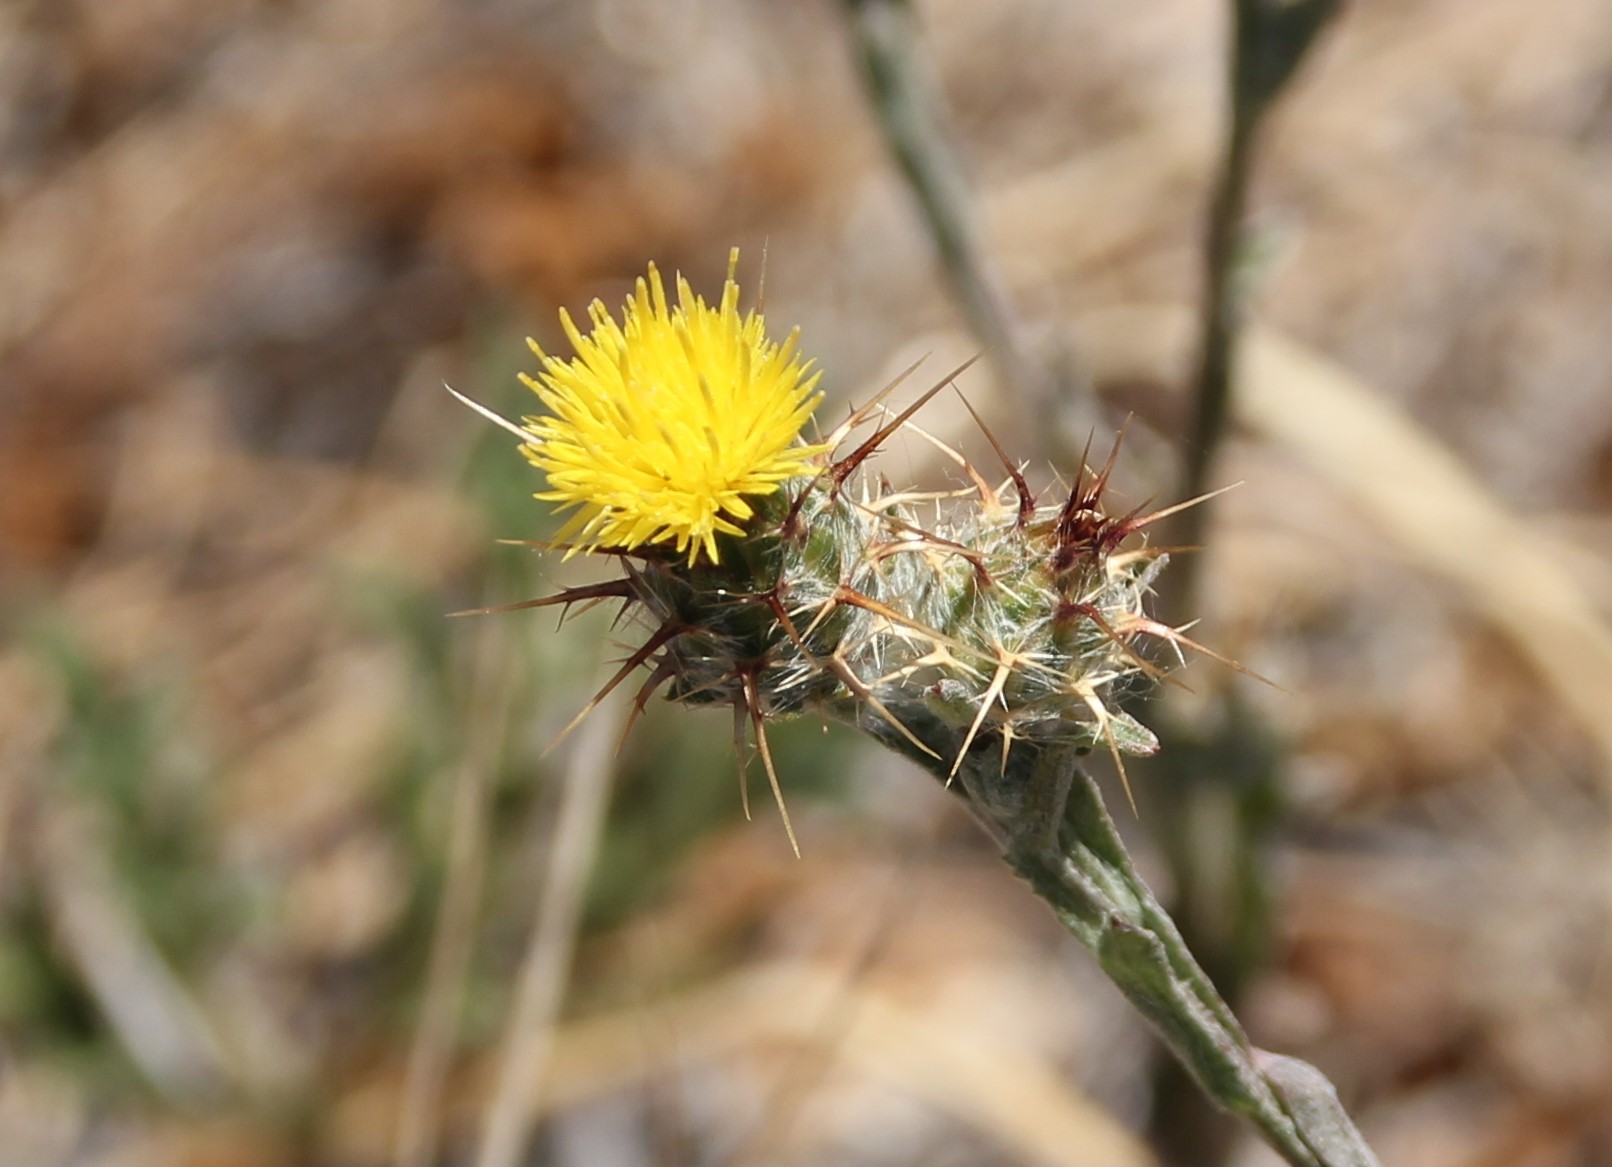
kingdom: Plantae
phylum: Tracheophyta
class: Magnoliopsida
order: Asterales
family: Asteraceae
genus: Centaurea
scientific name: Centaurea melitensis
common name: Maltese star-thistle
